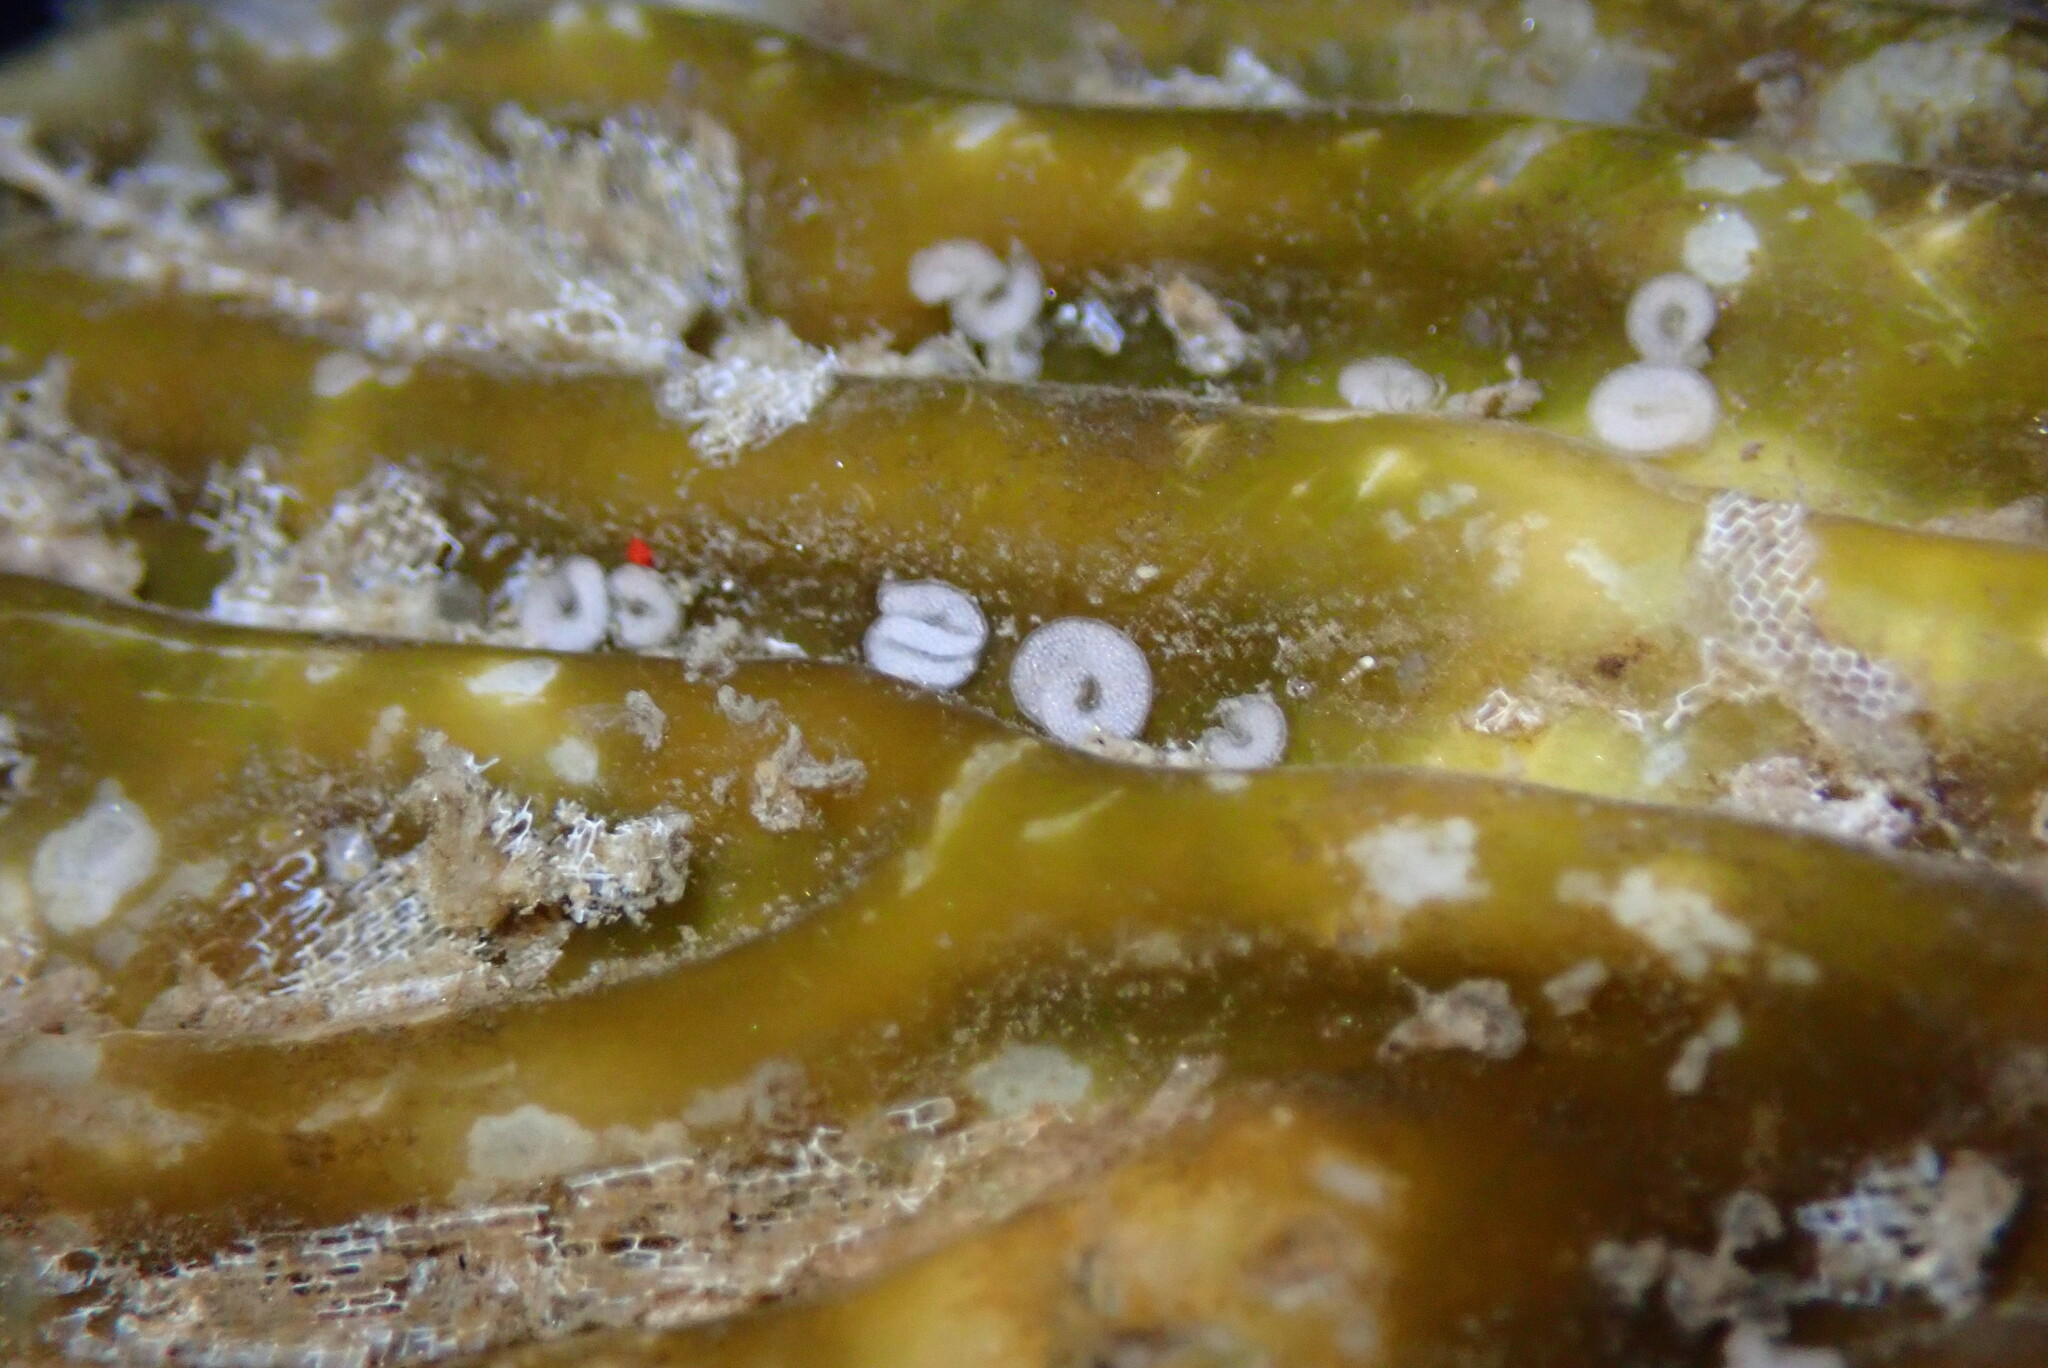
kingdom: Animalia
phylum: Mollusca
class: Gastropoda
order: Nudibranchia
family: Corambidae
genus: Corambe
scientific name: Corambe steinbergae
